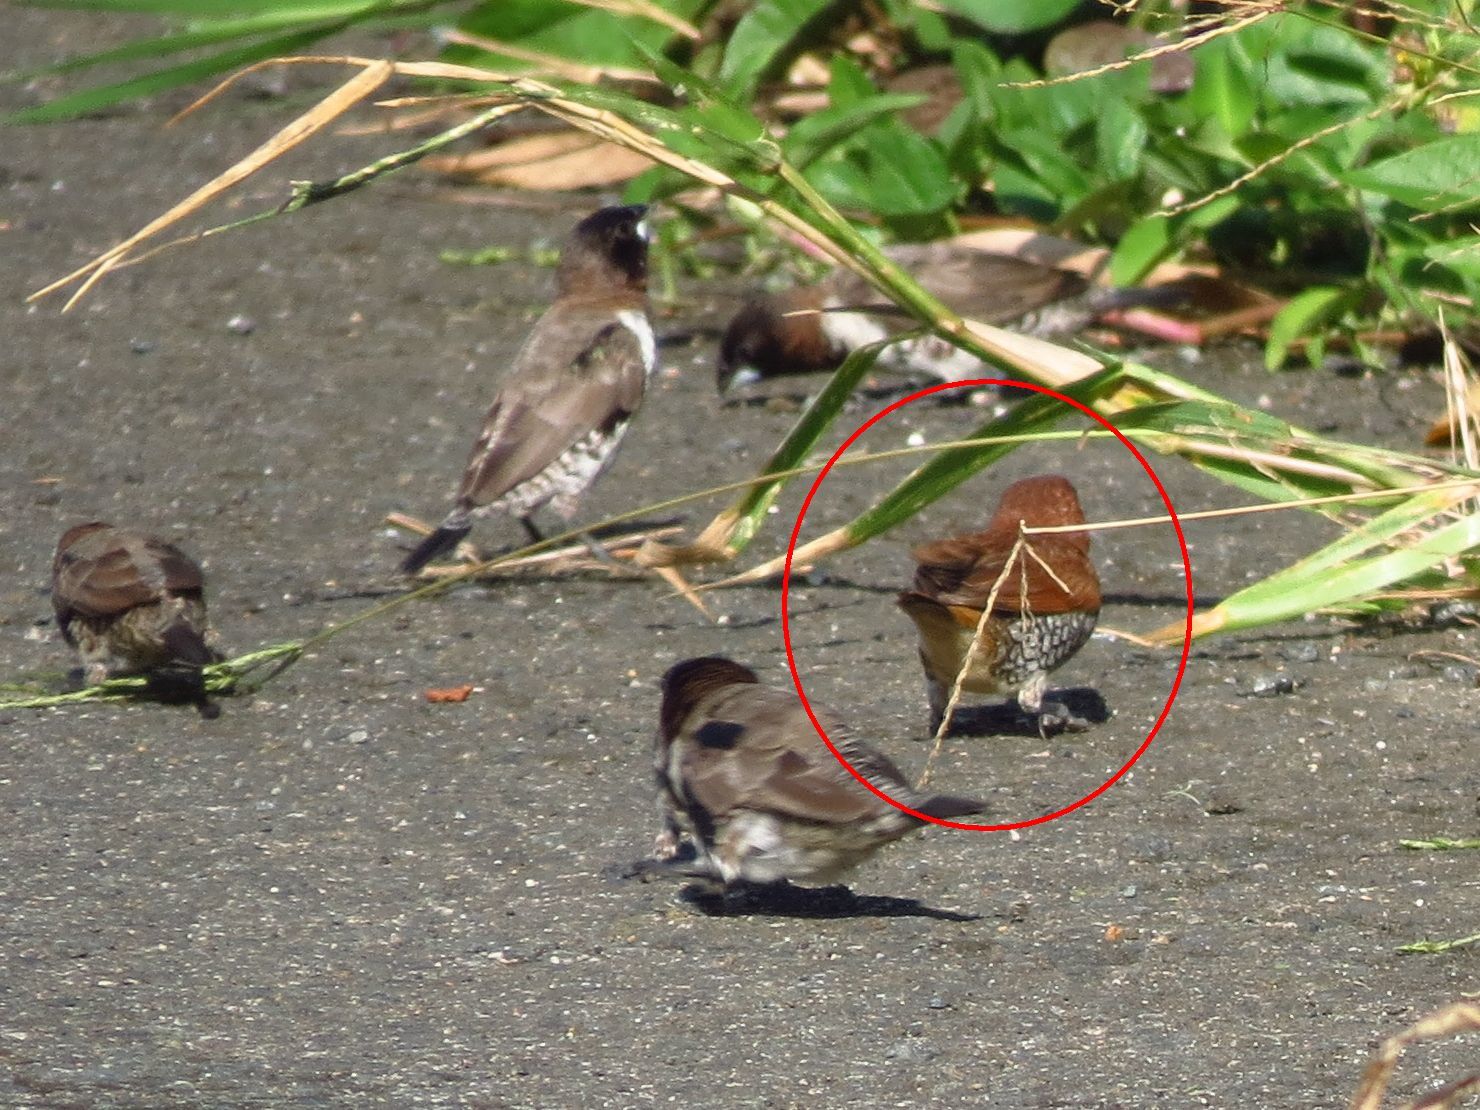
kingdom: Animalia
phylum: Chordata
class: Aves
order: Passeriformes
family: Estrildidae
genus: Lonchura
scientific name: Lonchura punctulata
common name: Scaly-breasted munia
